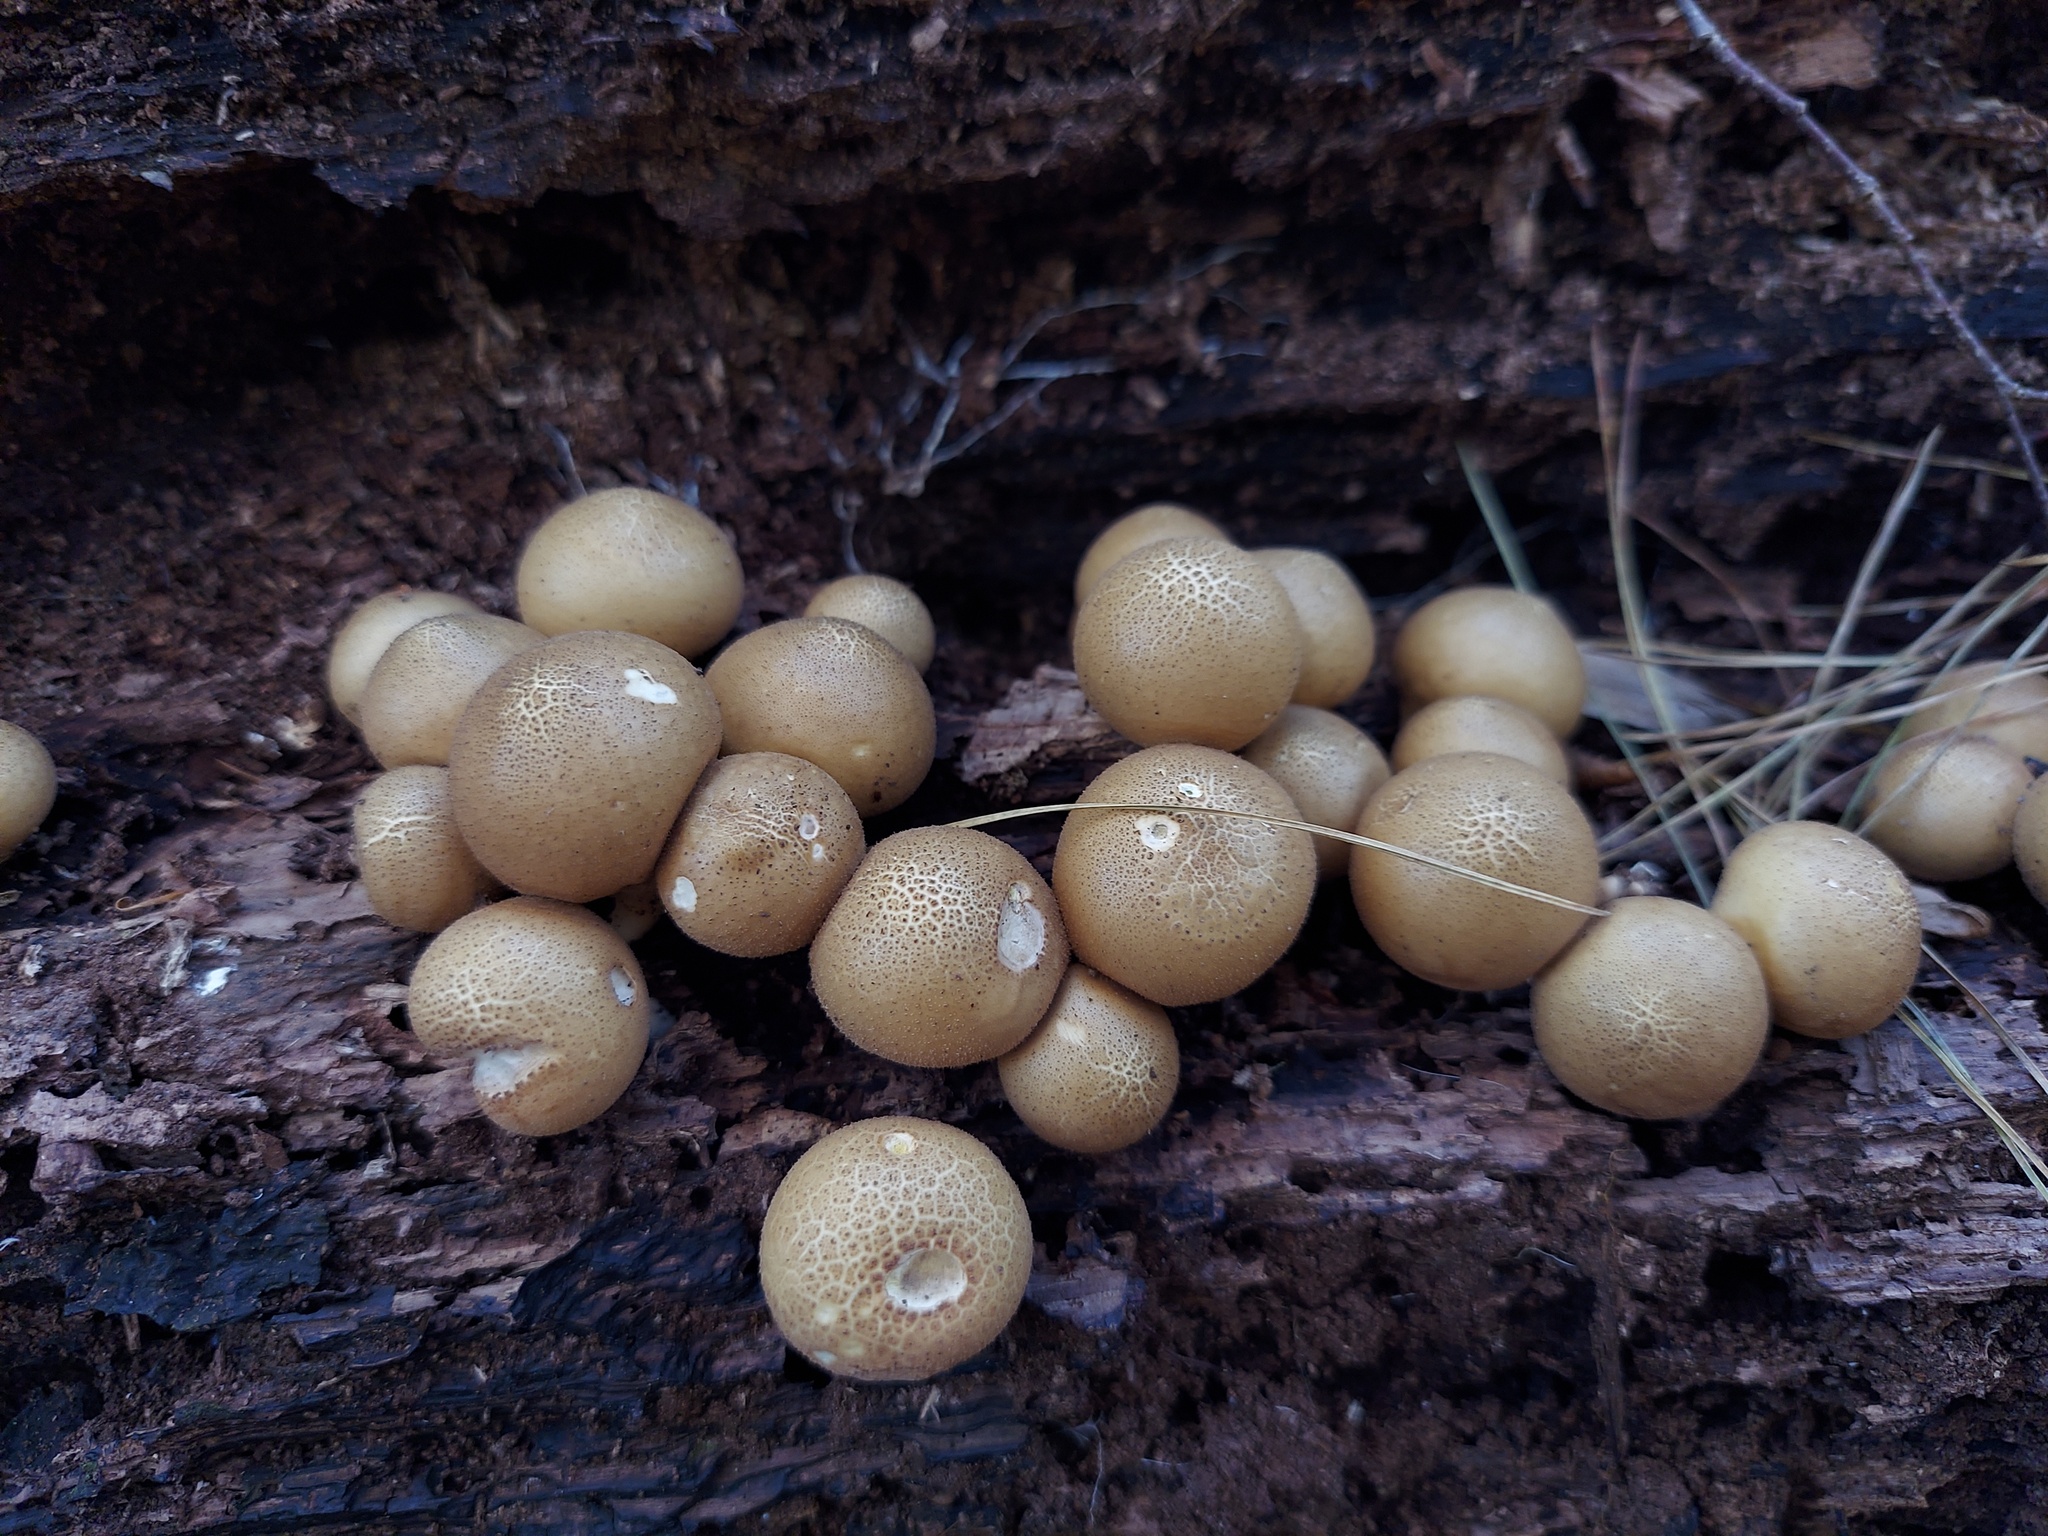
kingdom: Fungi
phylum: Basidiomycota
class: Agaricomycetes
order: Agaricales
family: Lycoperdaceae
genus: Apioperdon
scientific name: Apioperdon pyriforme
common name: Pear-shaped puffball
